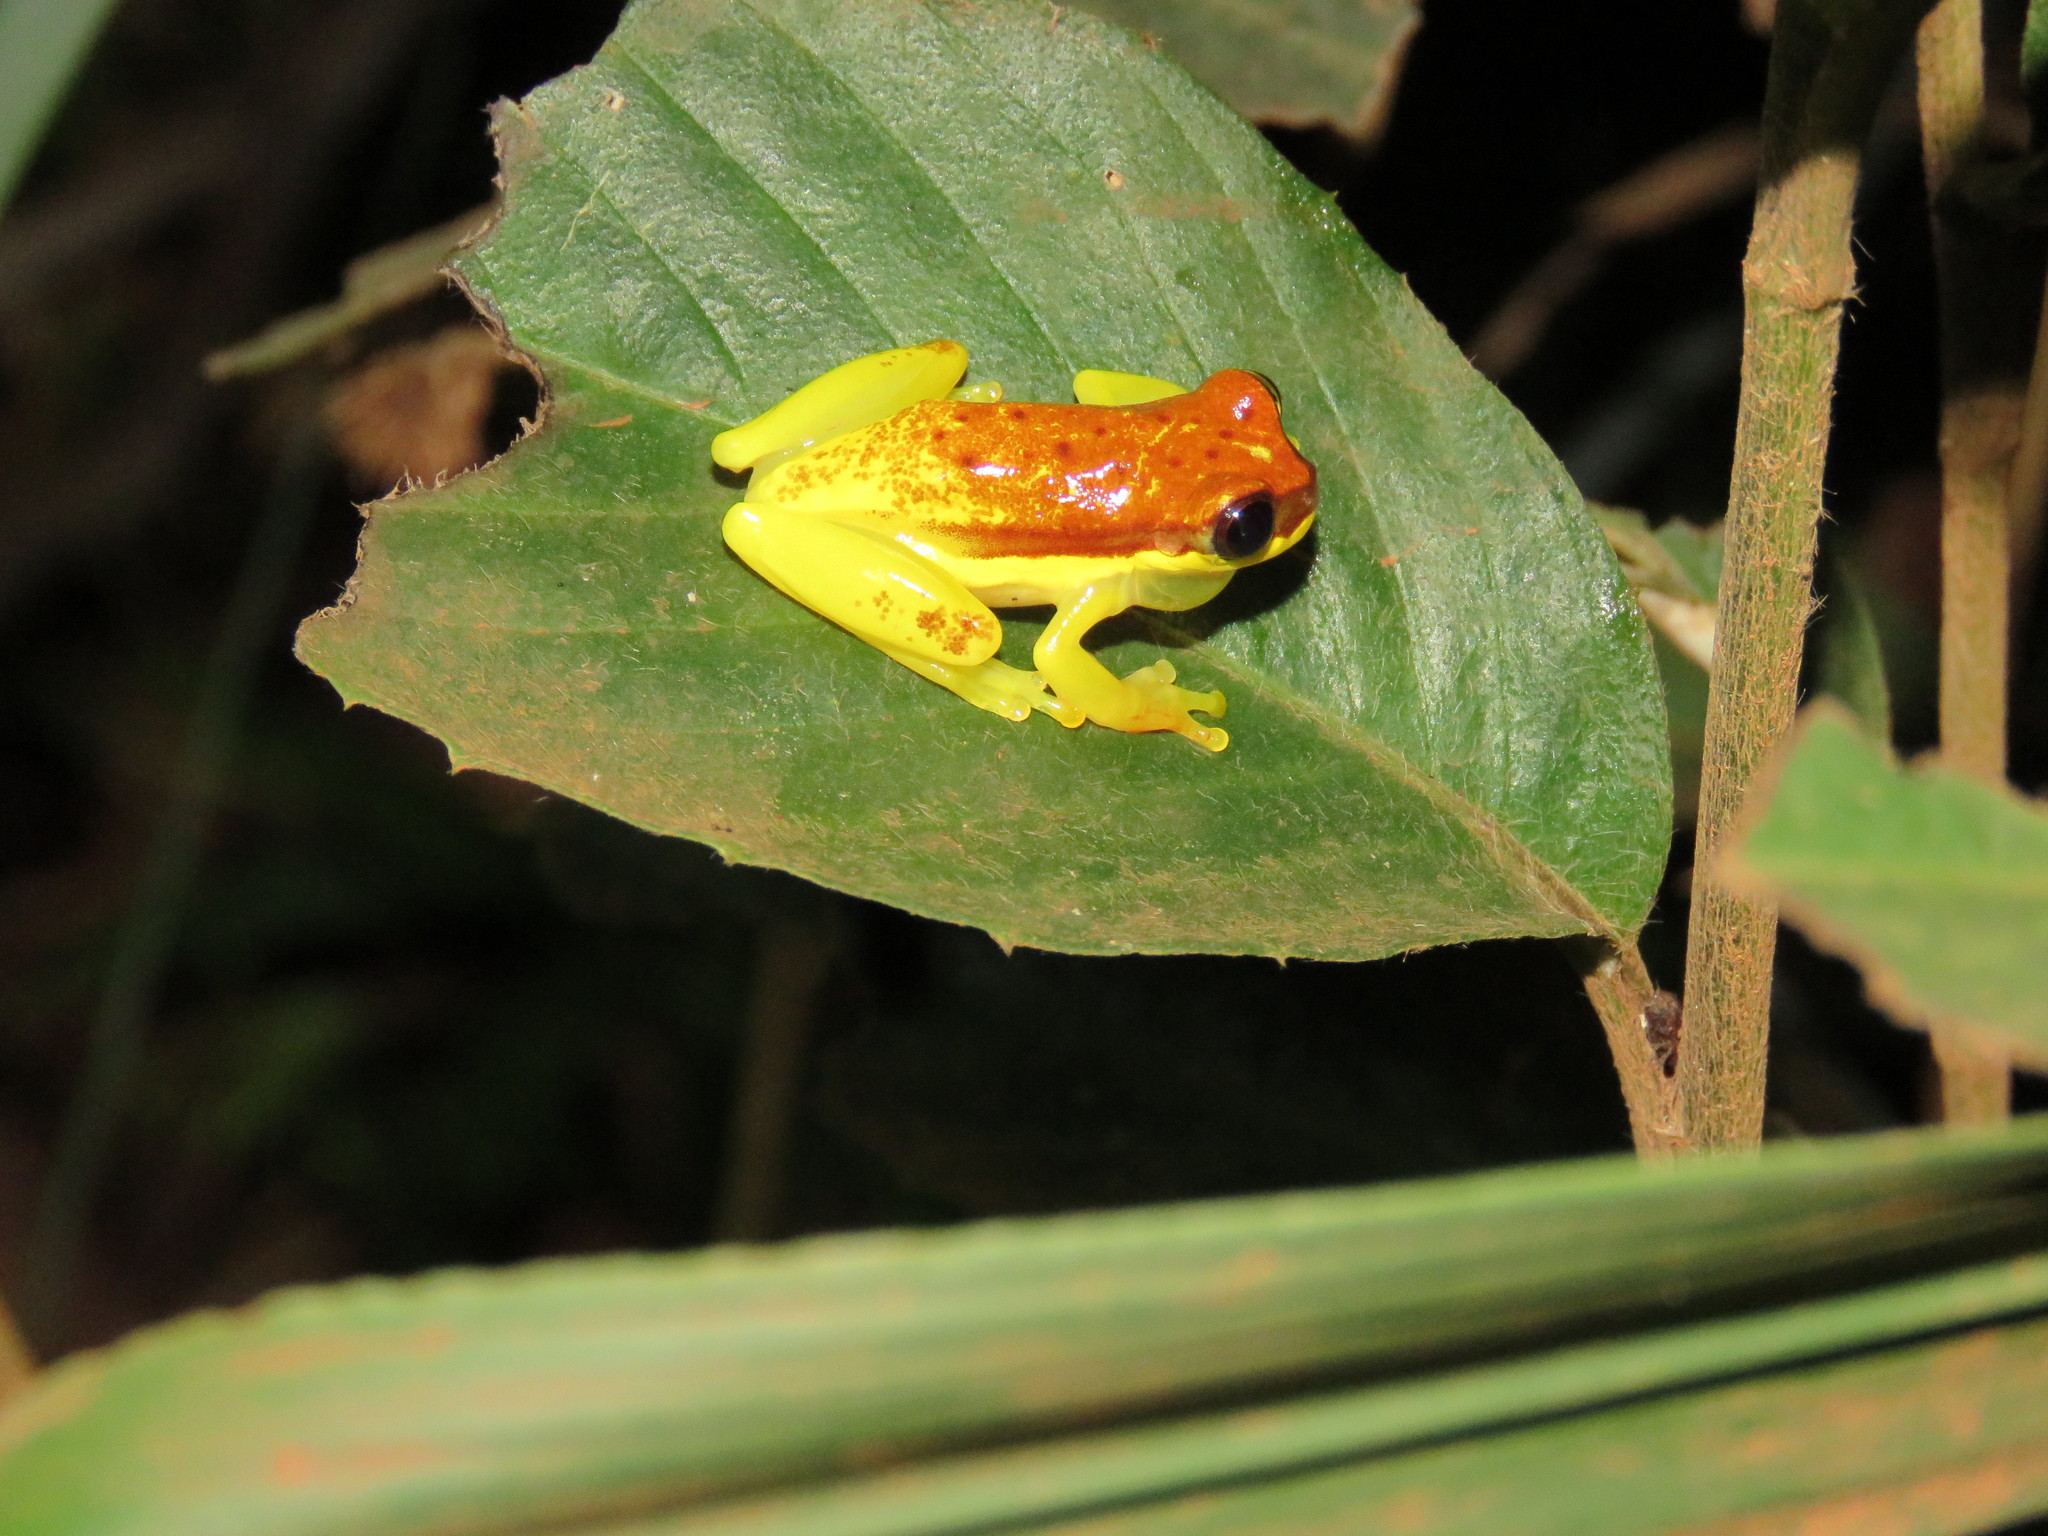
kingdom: Animalia
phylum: Chordata
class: Amphibia
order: Anura
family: Hylidae
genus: Dendropsophus
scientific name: Dendropsophus rhodopeplus
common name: Red-skirted treefrog
